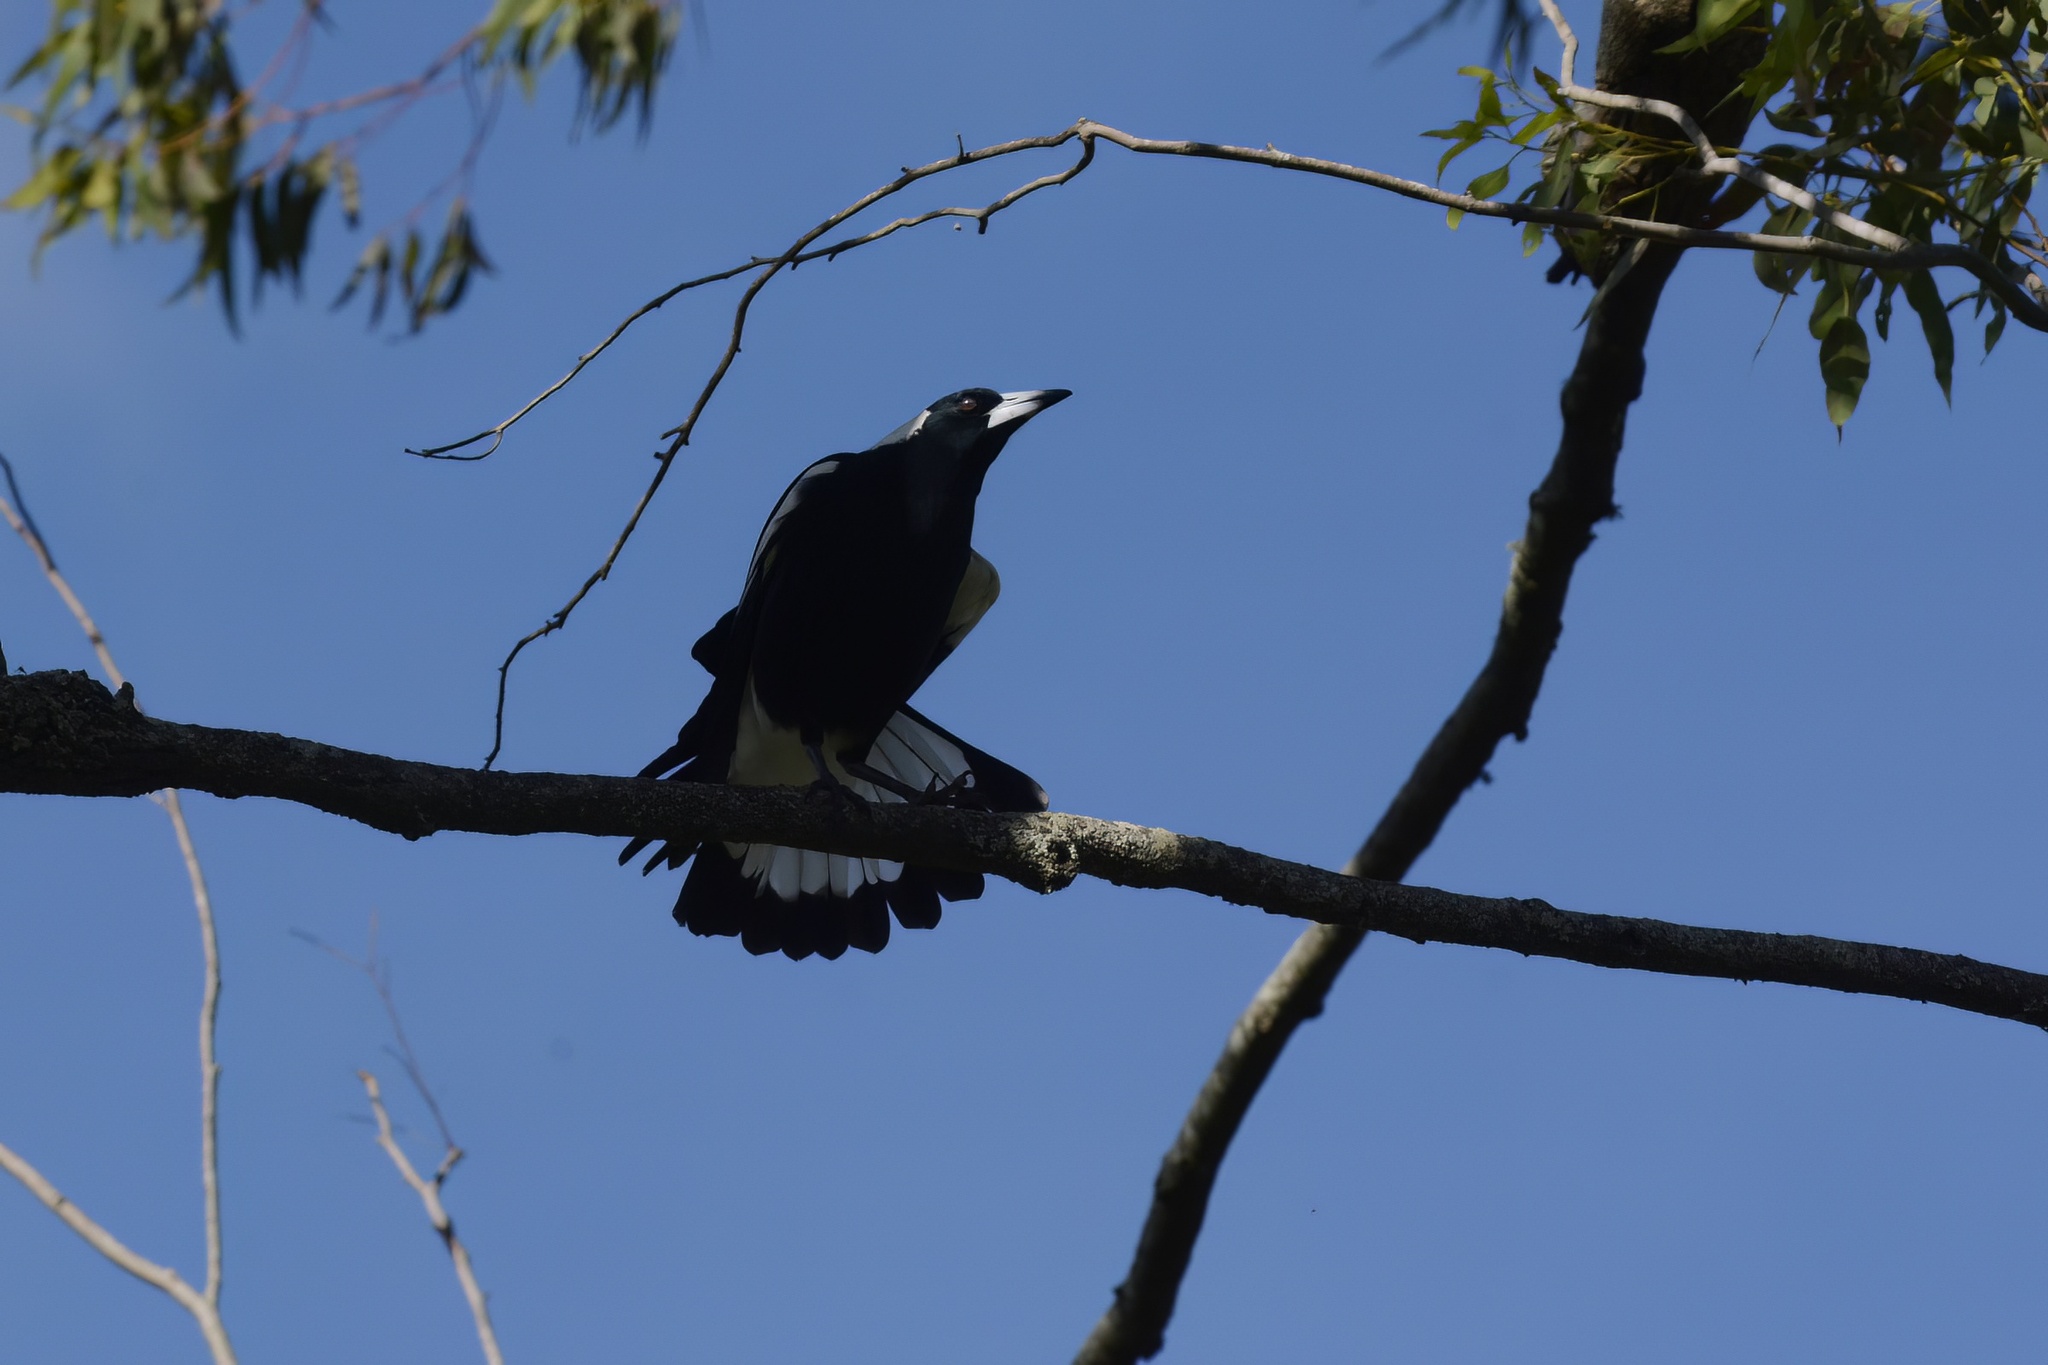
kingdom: Animalia
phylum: Chordata
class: Aves
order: Passeriformes
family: Cracticidae
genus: Gymnorhina
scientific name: Gymnorhina tibicen
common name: Australian magpie
